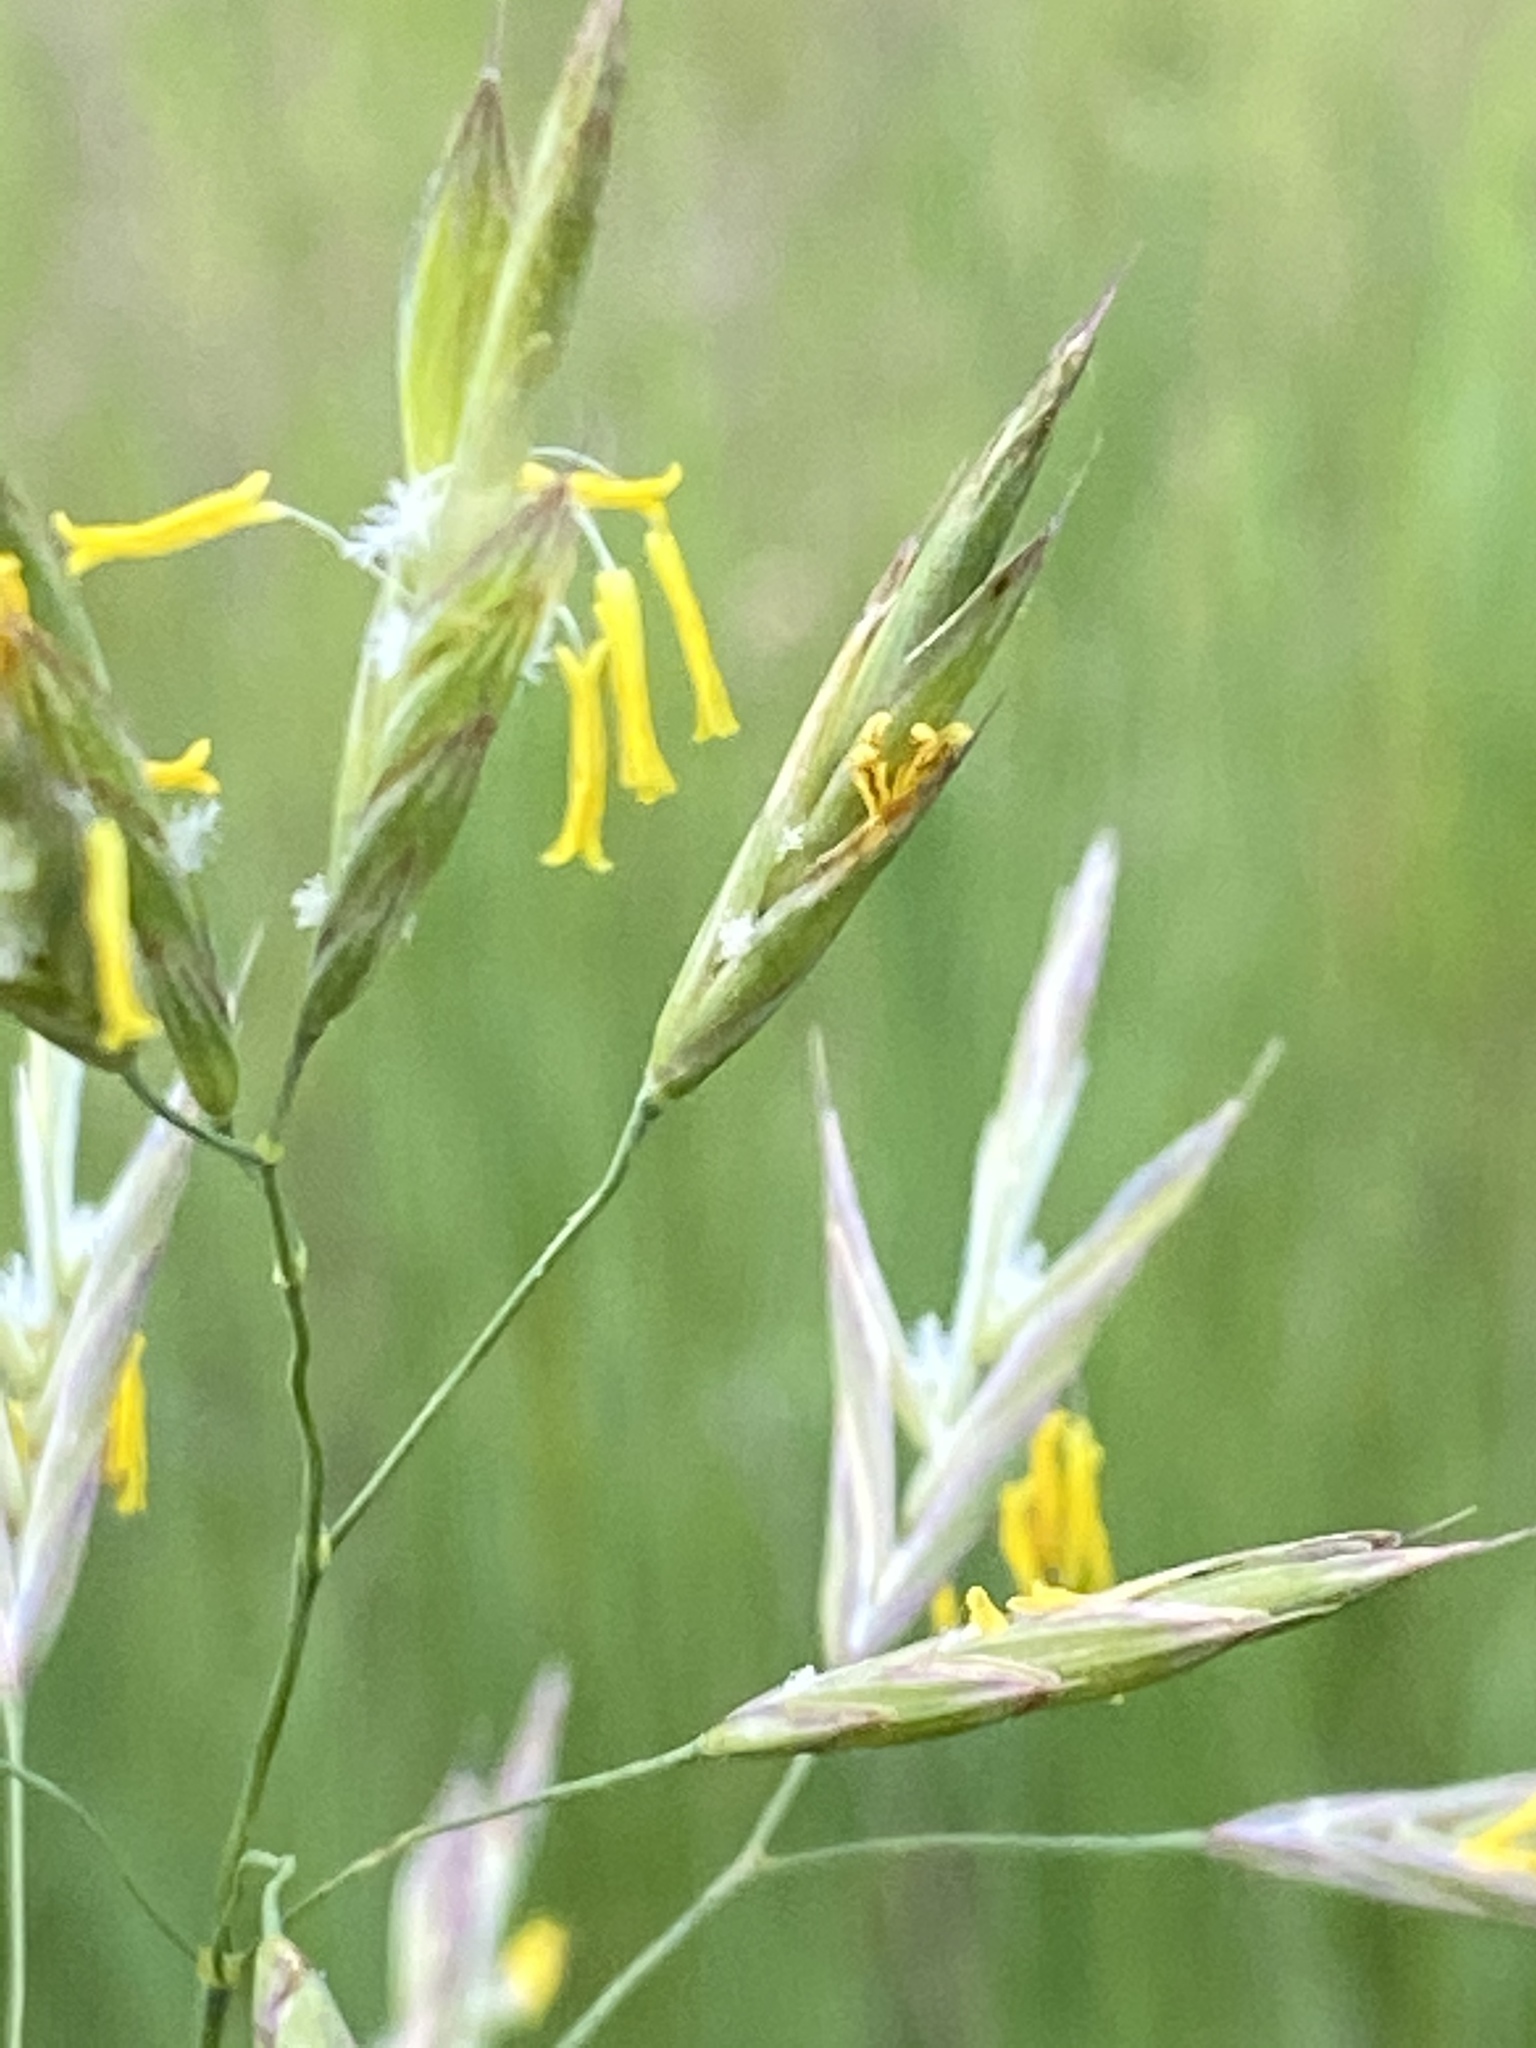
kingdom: Plantae
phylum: Tracheophyta
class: Liliopsida
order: Poales
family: Poaceae
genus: Bromus
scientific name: Bromus inermis
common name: Smooth brome
